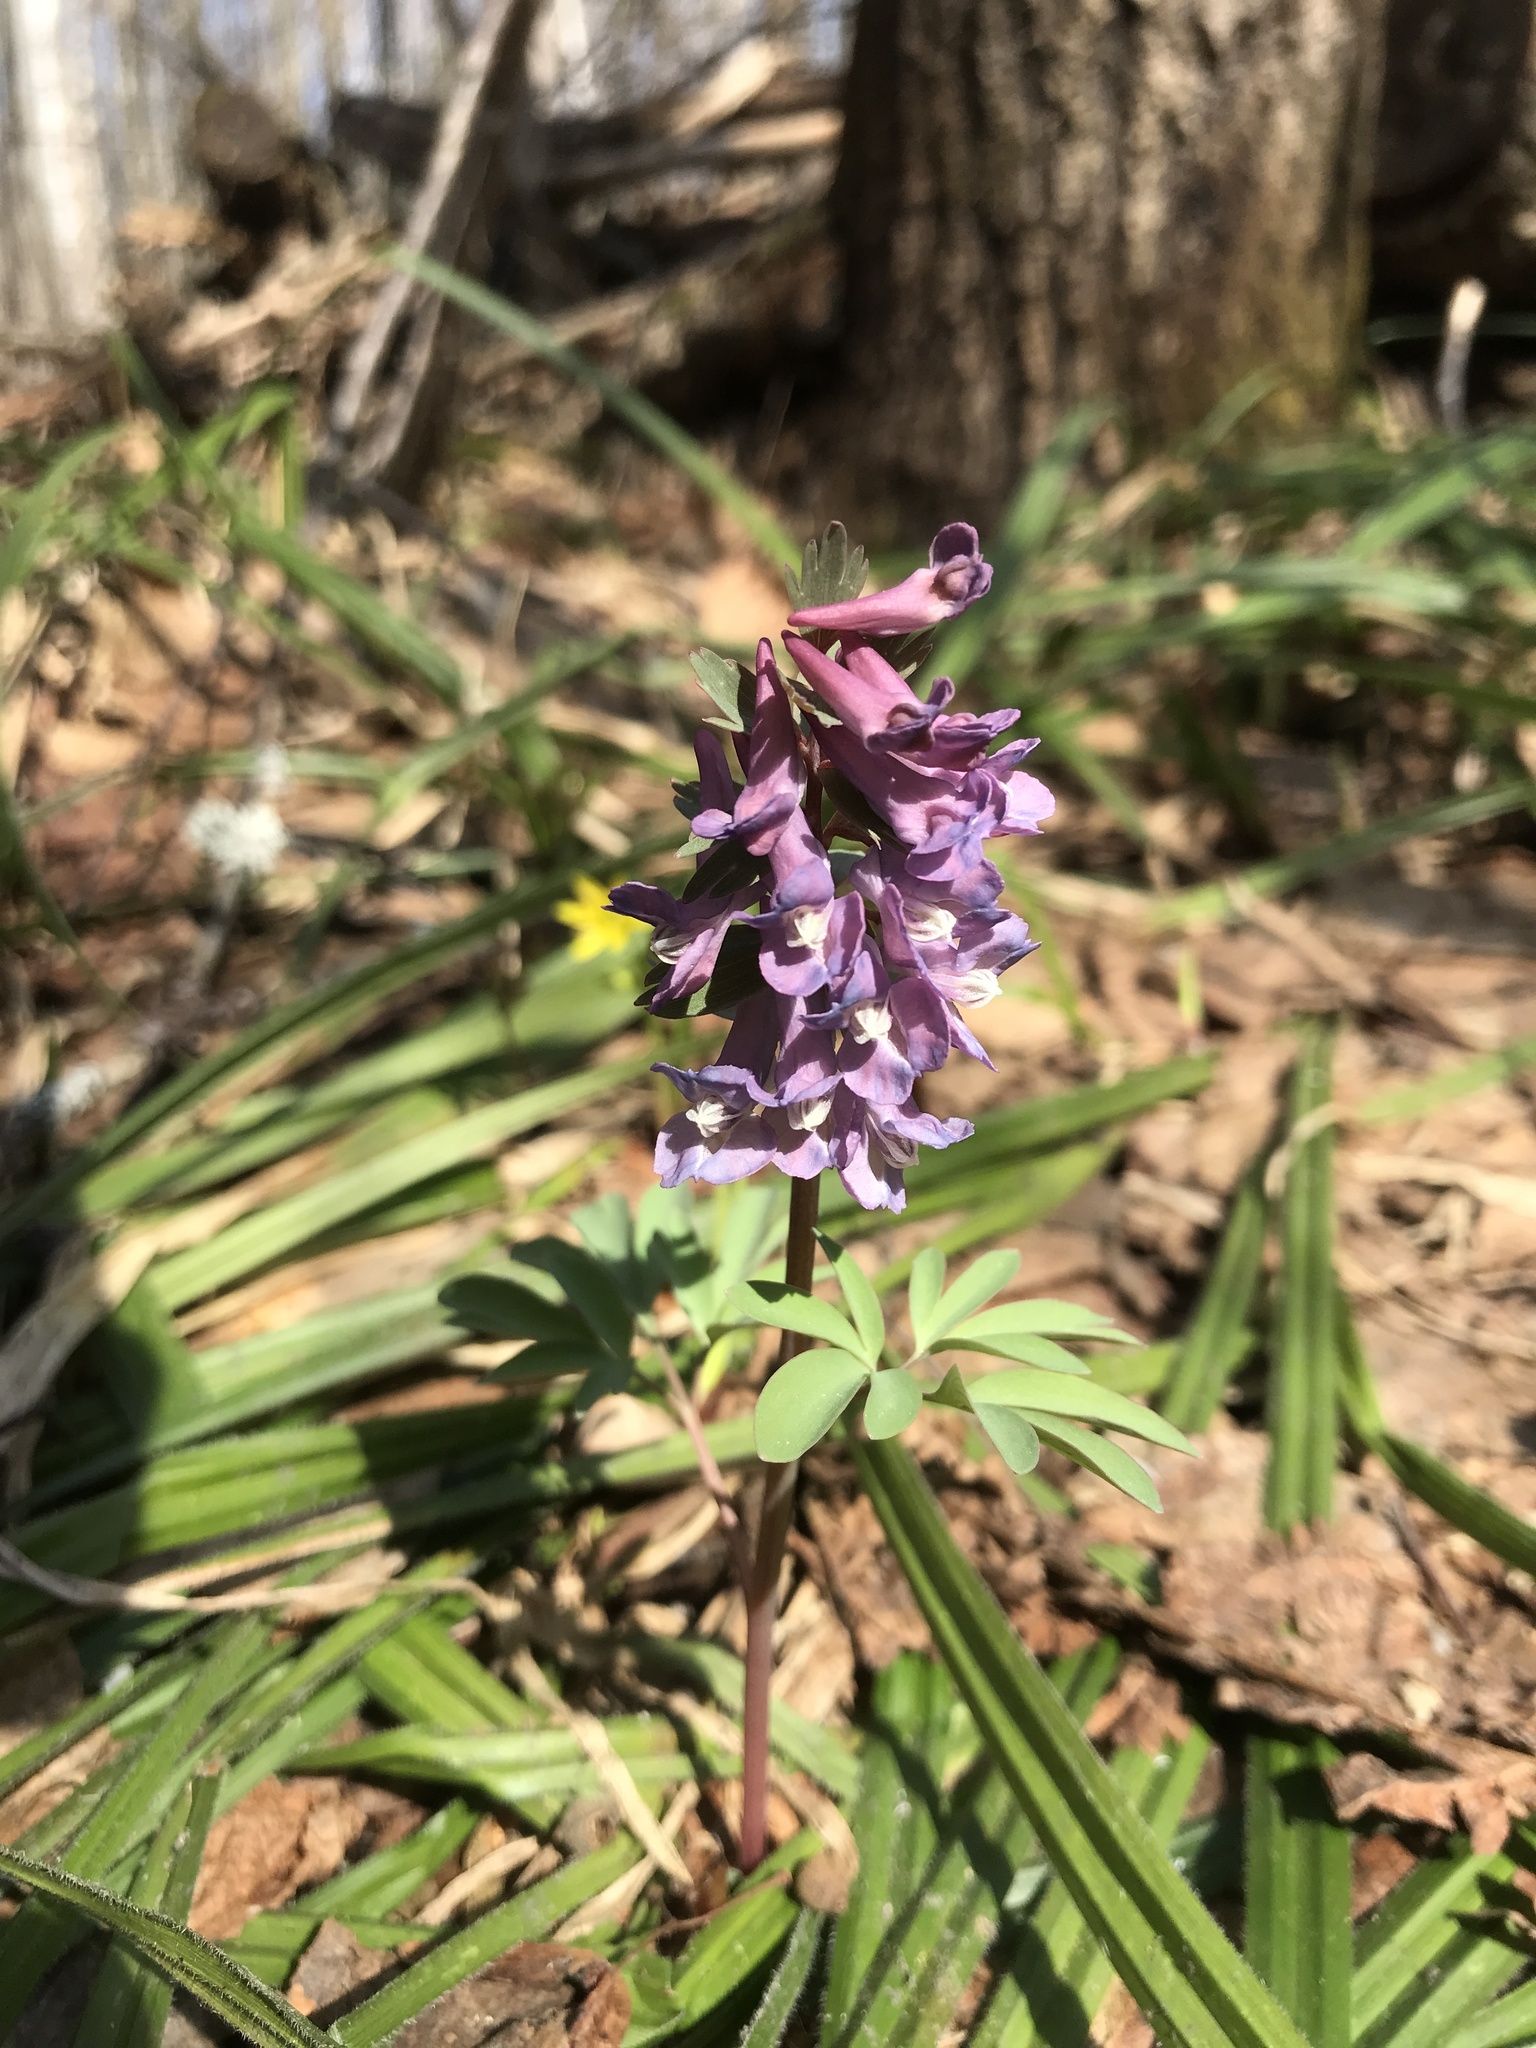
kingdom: Plantae
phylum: Tracheophyta
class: Magnoliopsida
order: Ranunculales
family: Papaveraceae
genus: Corydalis
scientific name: Corydalis solida
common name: Bird-in-a-bush
